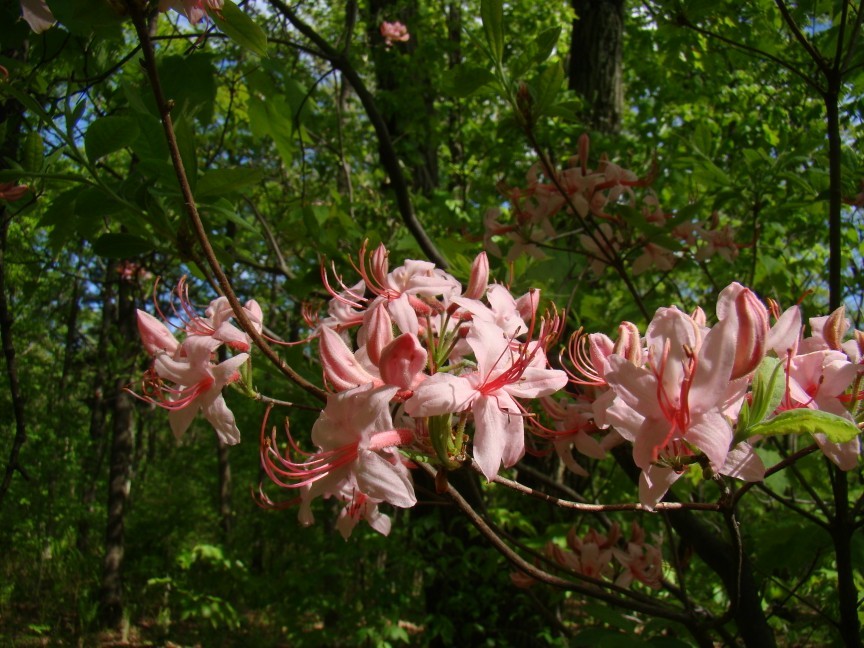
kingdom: Plantae
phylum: Tracheophyta
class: Magnoliopsida
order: Ericales
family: Ericaceae
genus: Rhododendron
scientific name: Rhododendron roseum
